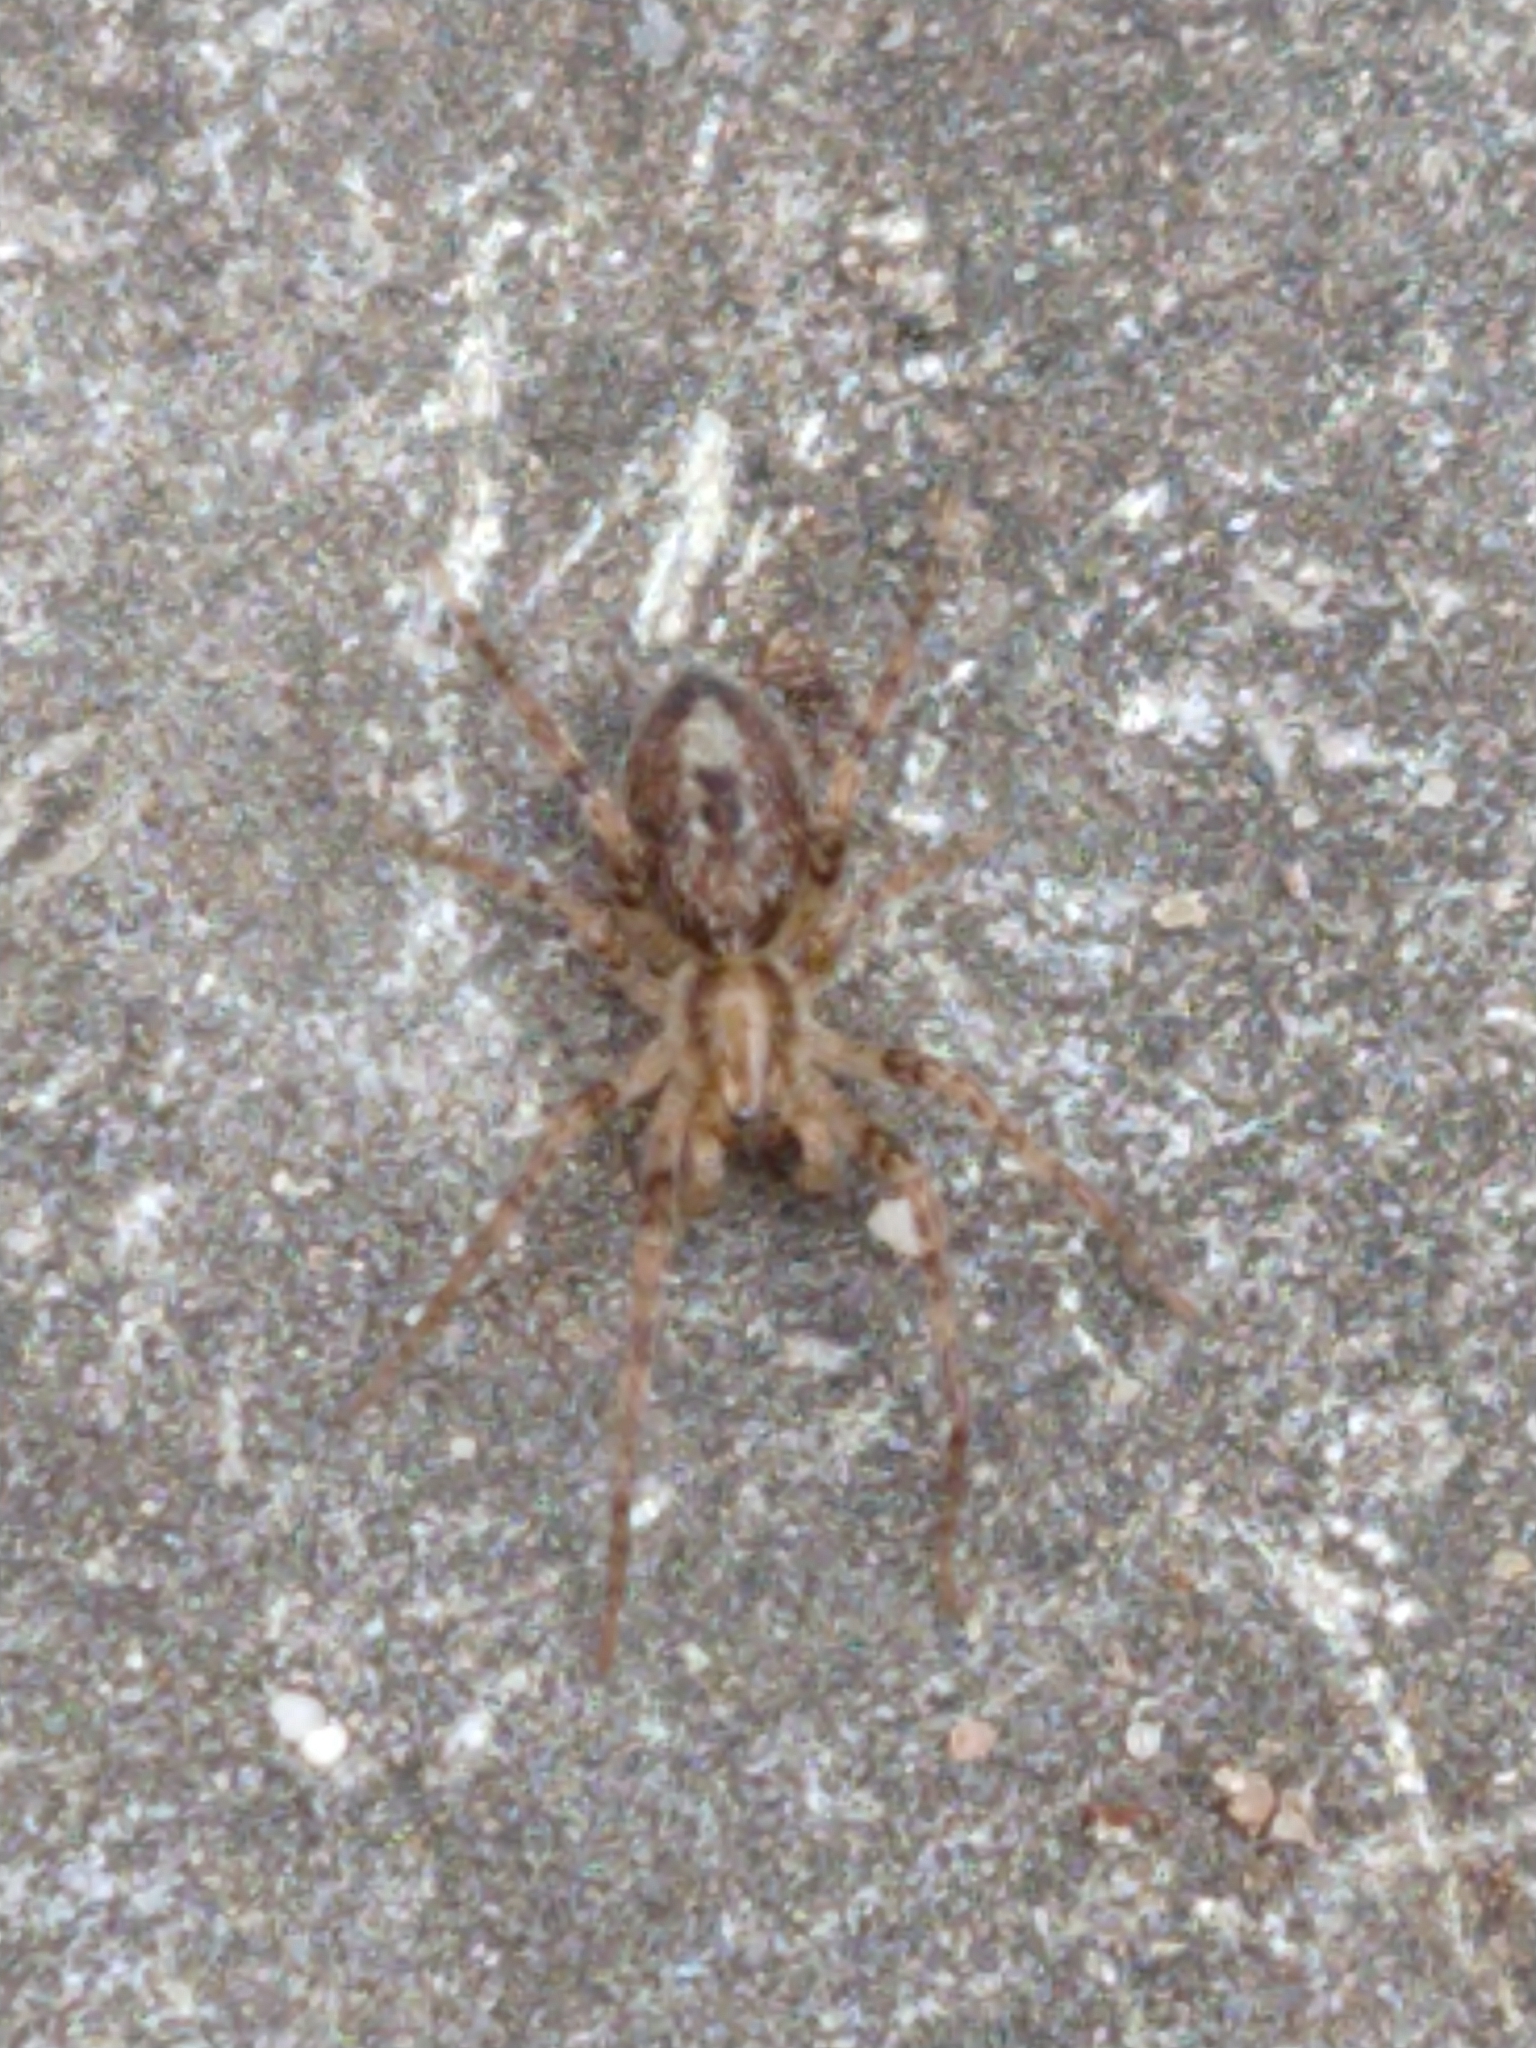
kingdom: Animalia
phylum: Arthropoda
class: Arachnida
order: Araneae
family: Anyphaenidae
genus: Anyphaena
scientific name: Anyphaena accentuata
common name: Buzzing spider
